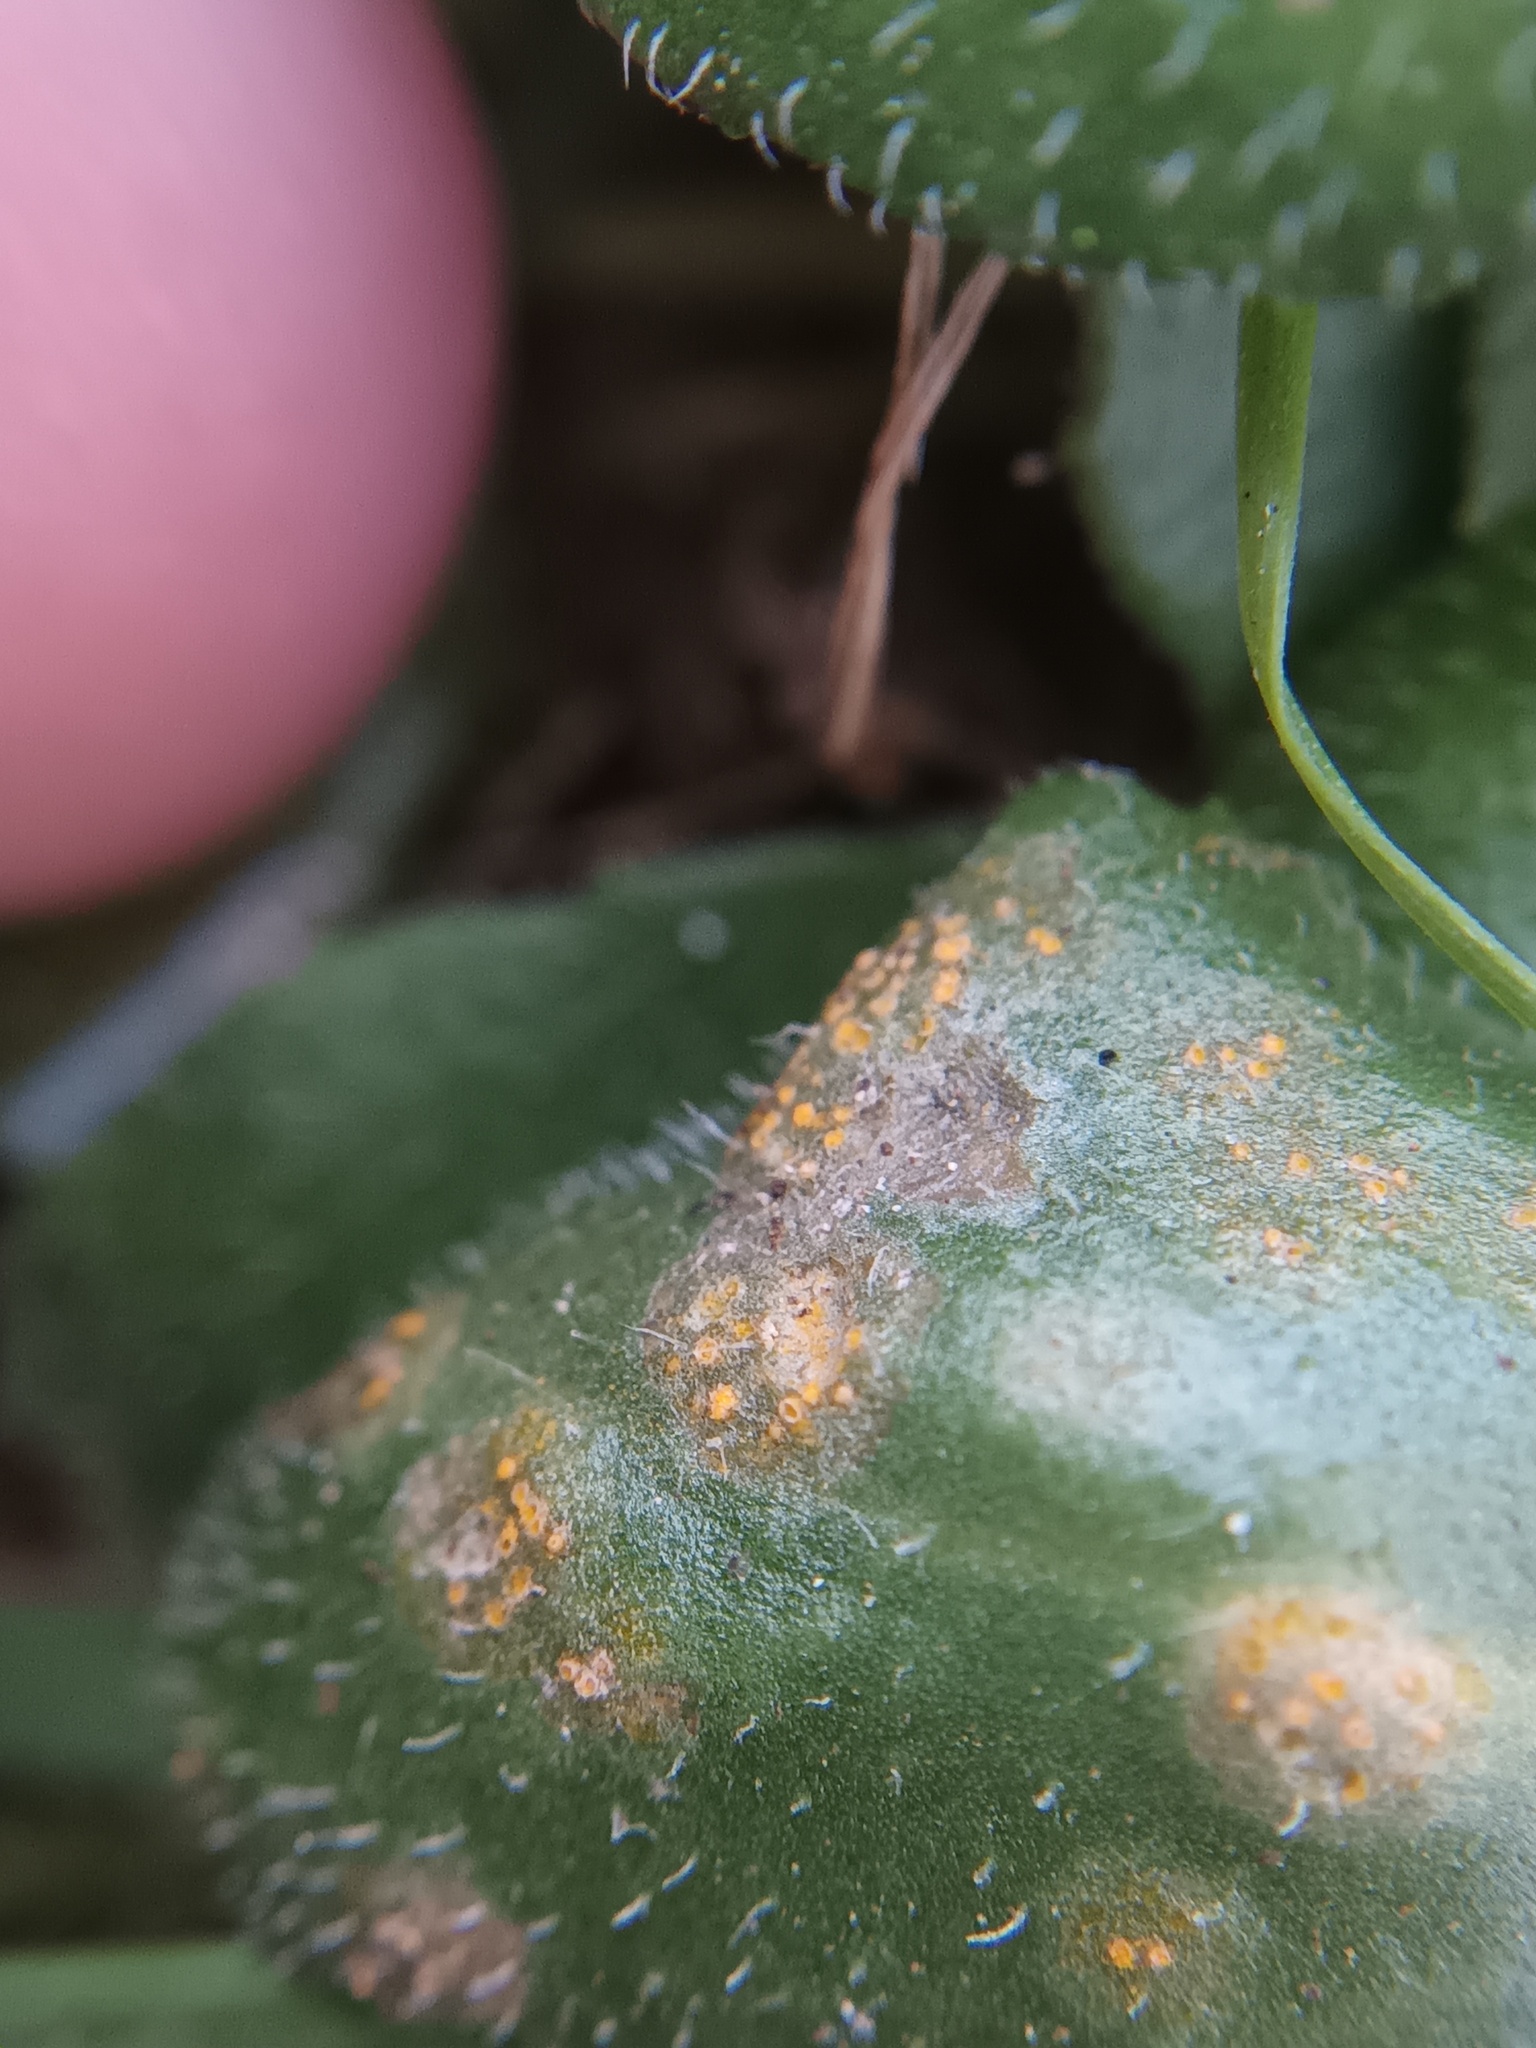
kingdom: Fungi
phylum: Basidiomycota
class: Pucciniomycetes
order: Pucciniales
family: Pucciniaceae
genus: Puccinia
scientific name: Puccinia lagenophorae
